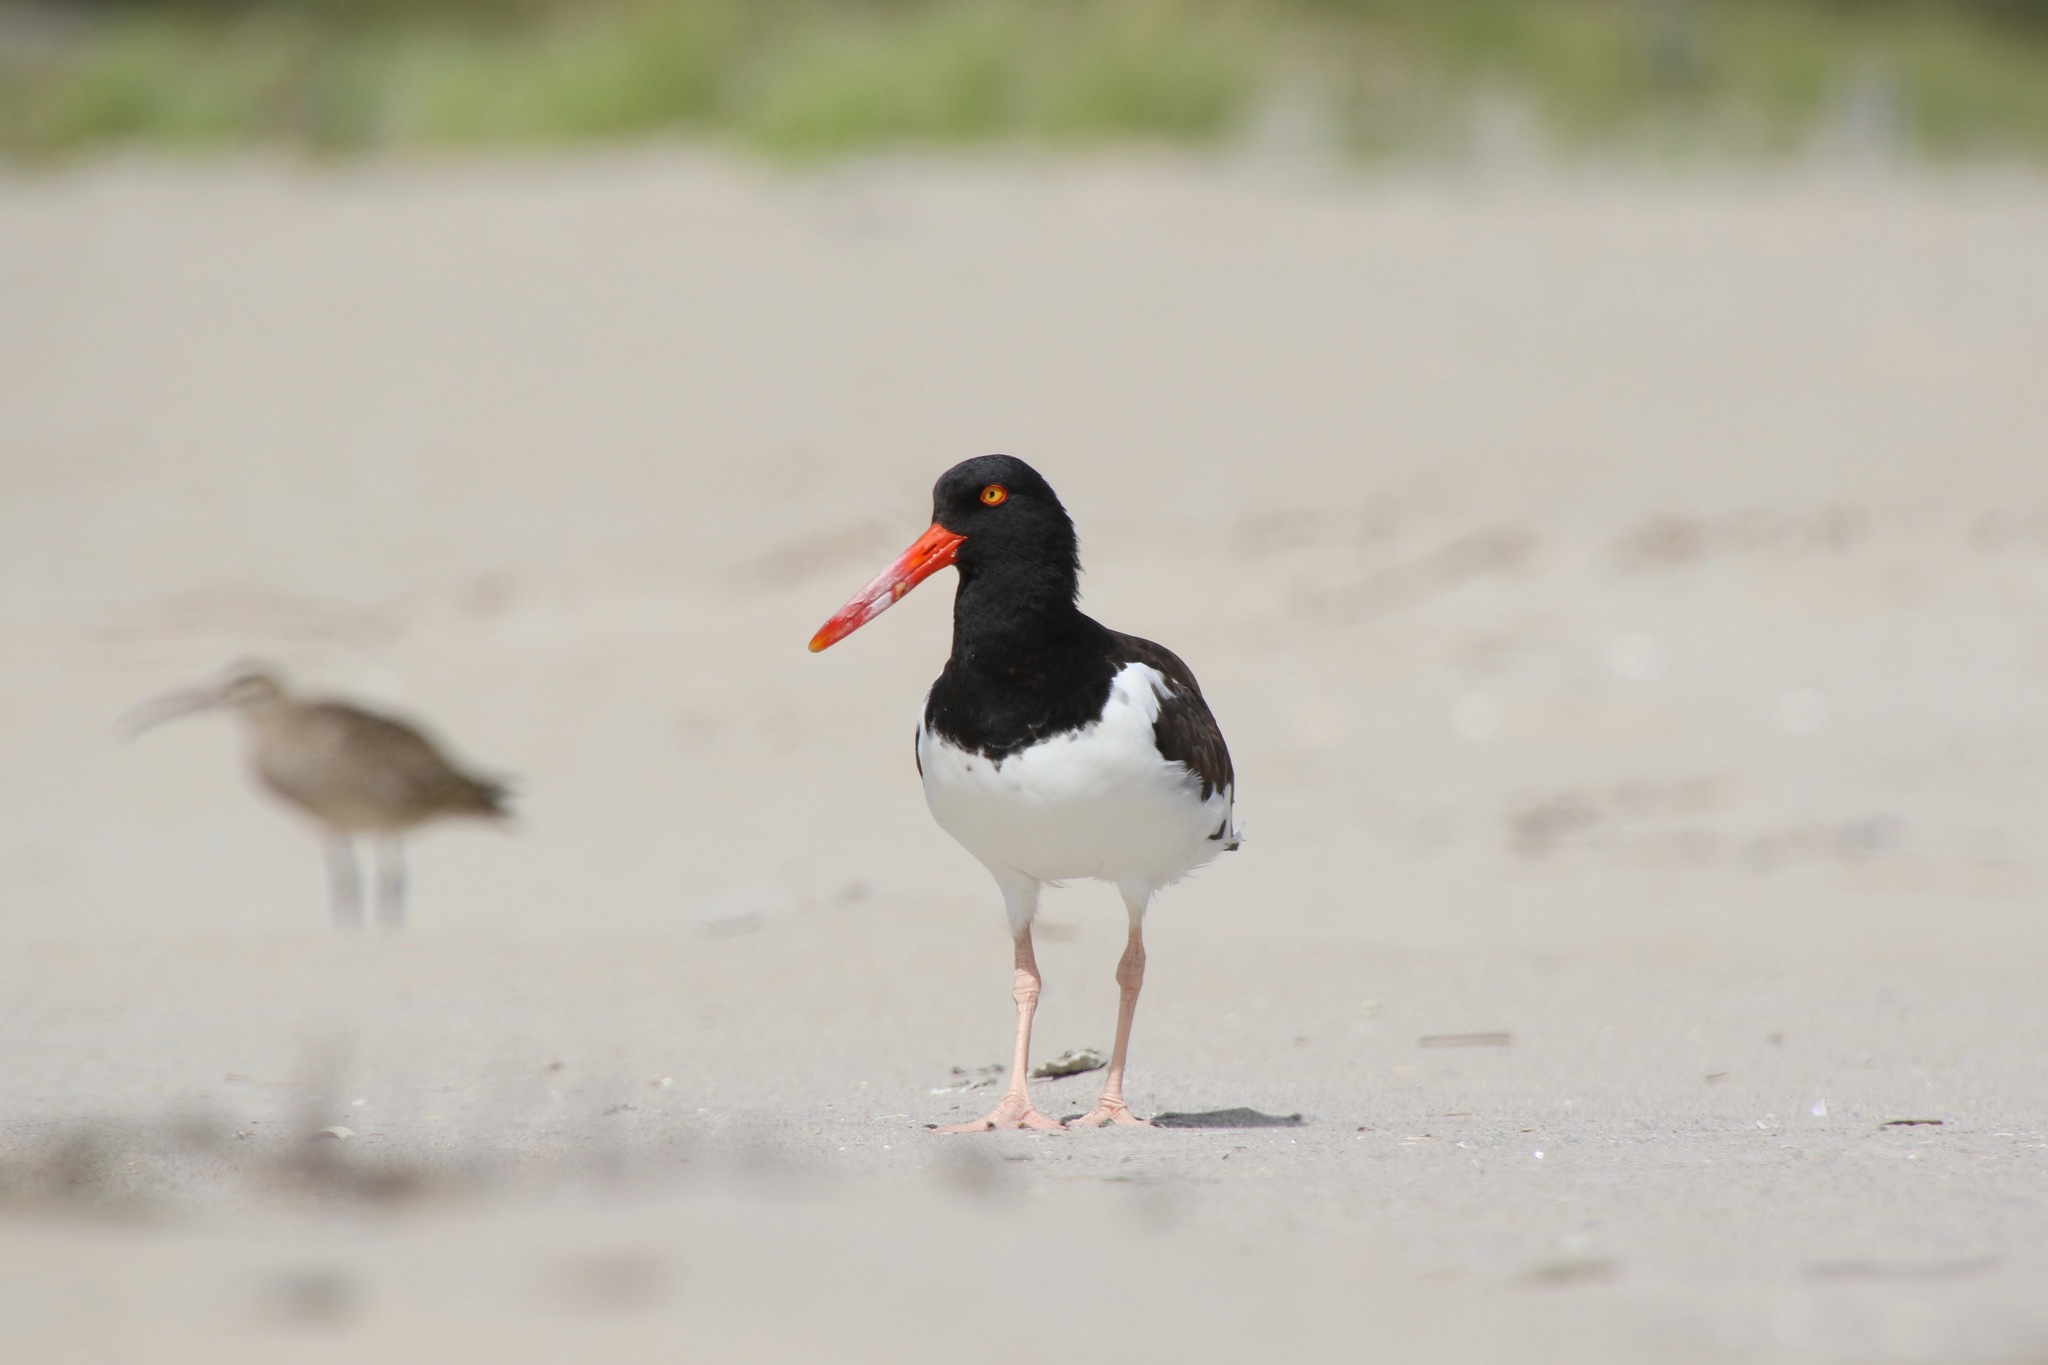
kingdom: Animalia
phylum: Chordata
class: Aves
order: Charadriiformes
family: Haematopodidae
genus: Haematopus
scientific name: Haematopus palliatus
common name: American oystercatcher
